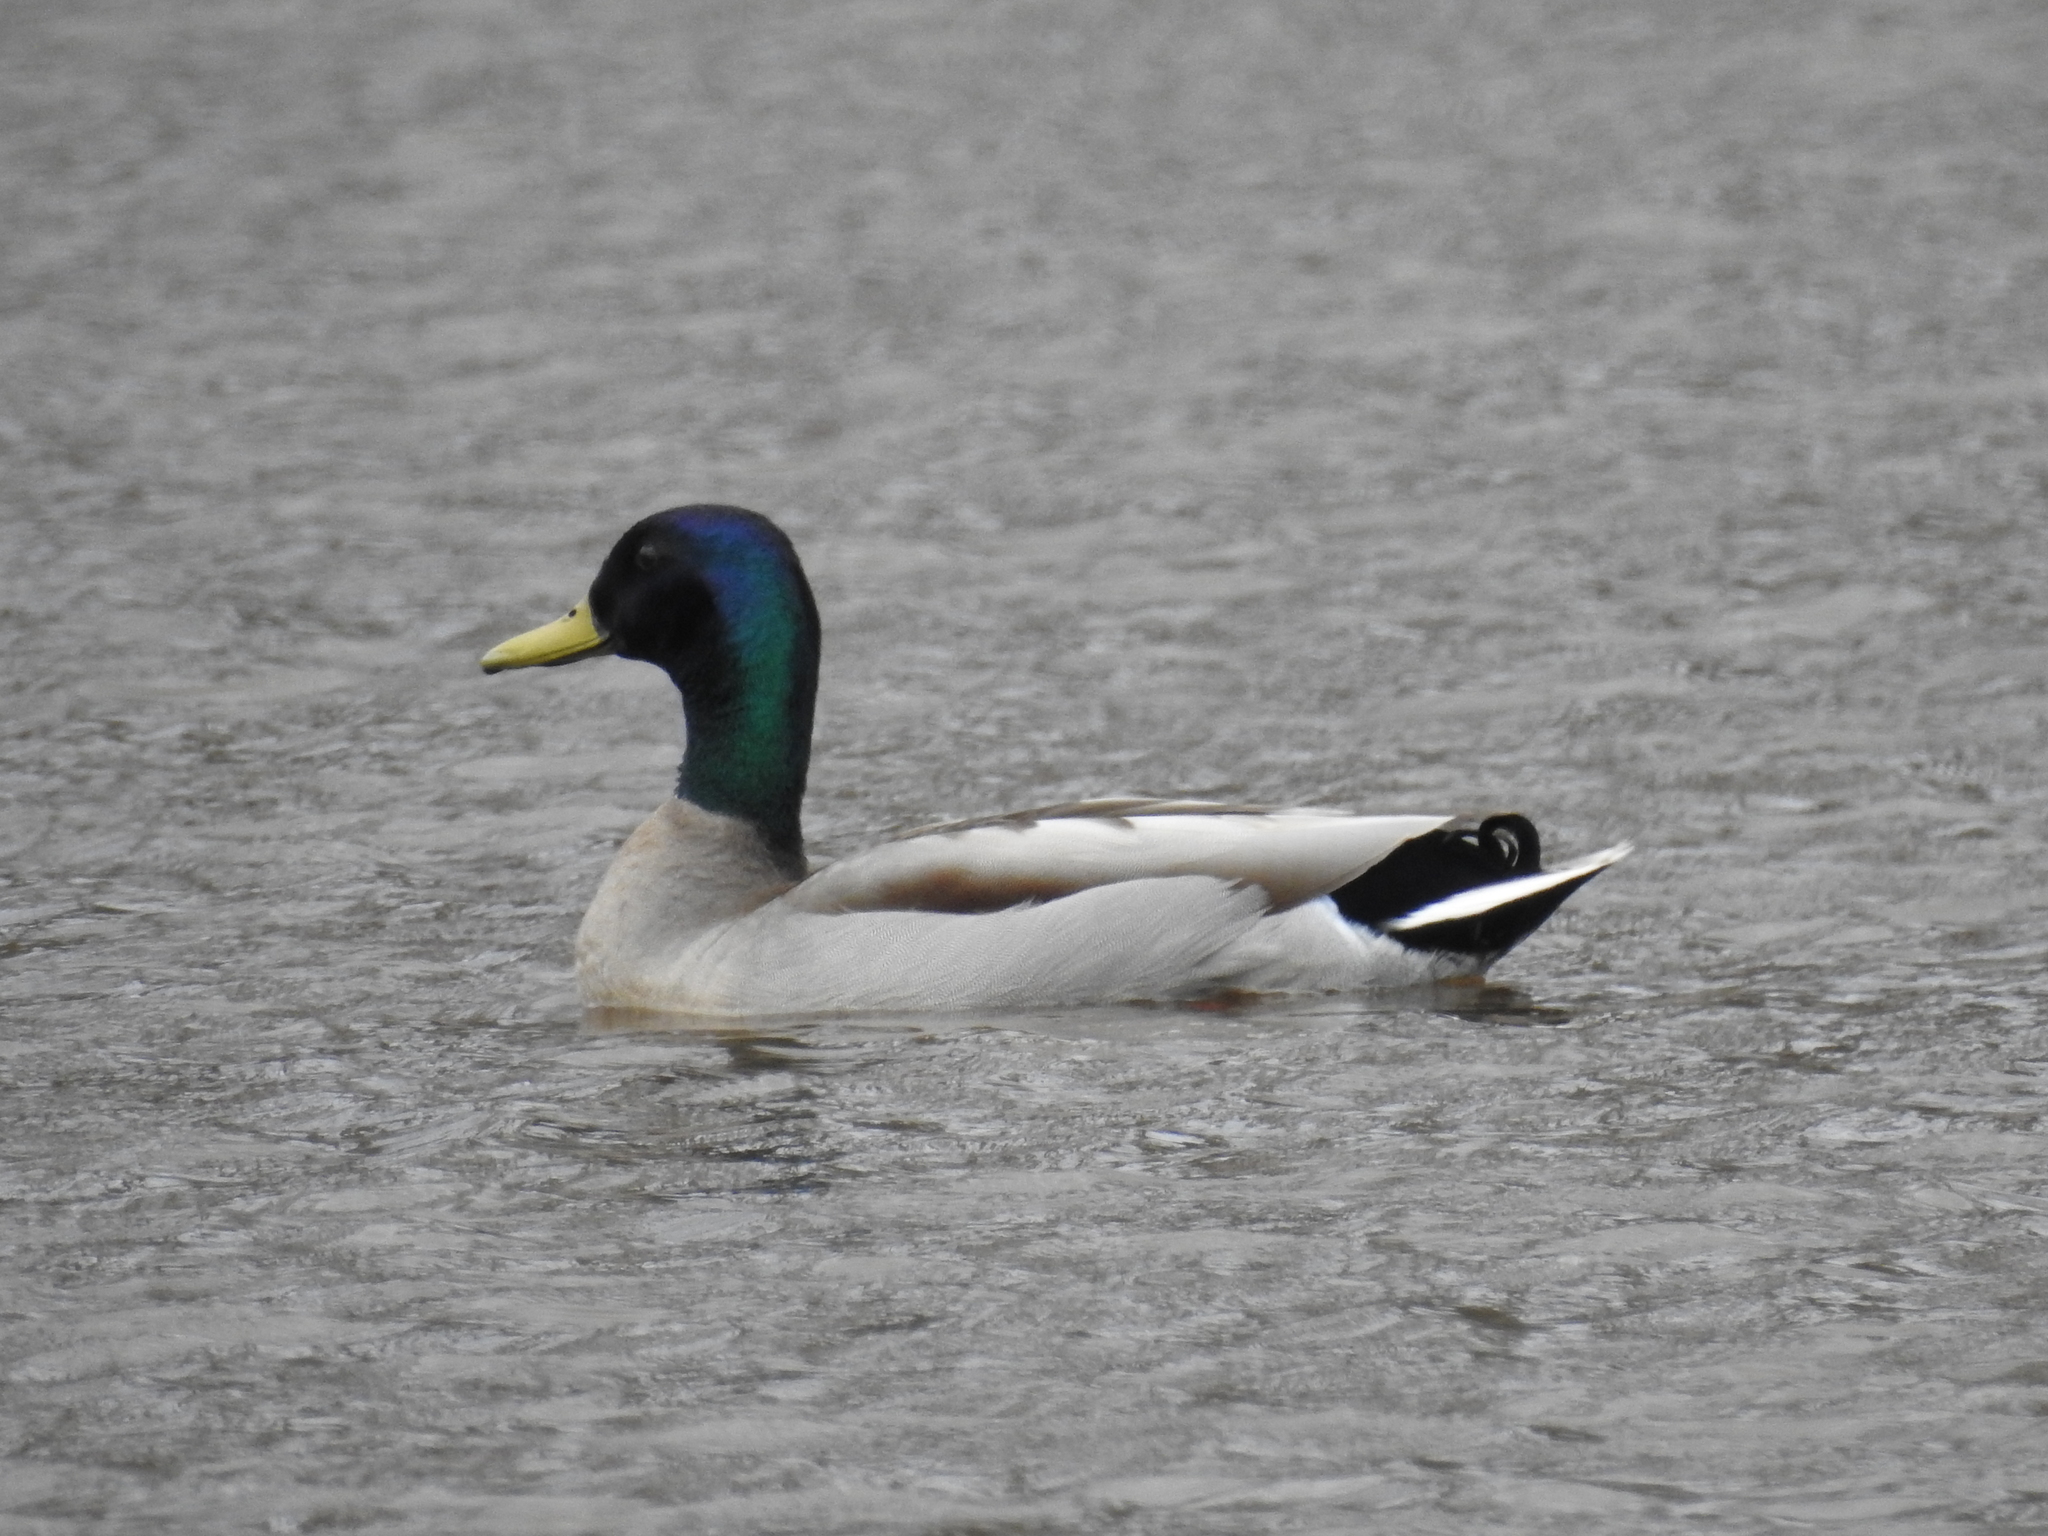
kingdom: Animalia
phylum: Chordata
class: Aves
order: Anseriformes
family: Anatidae
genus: Anas
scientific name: Anas platyrhynchos
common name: Mallard
